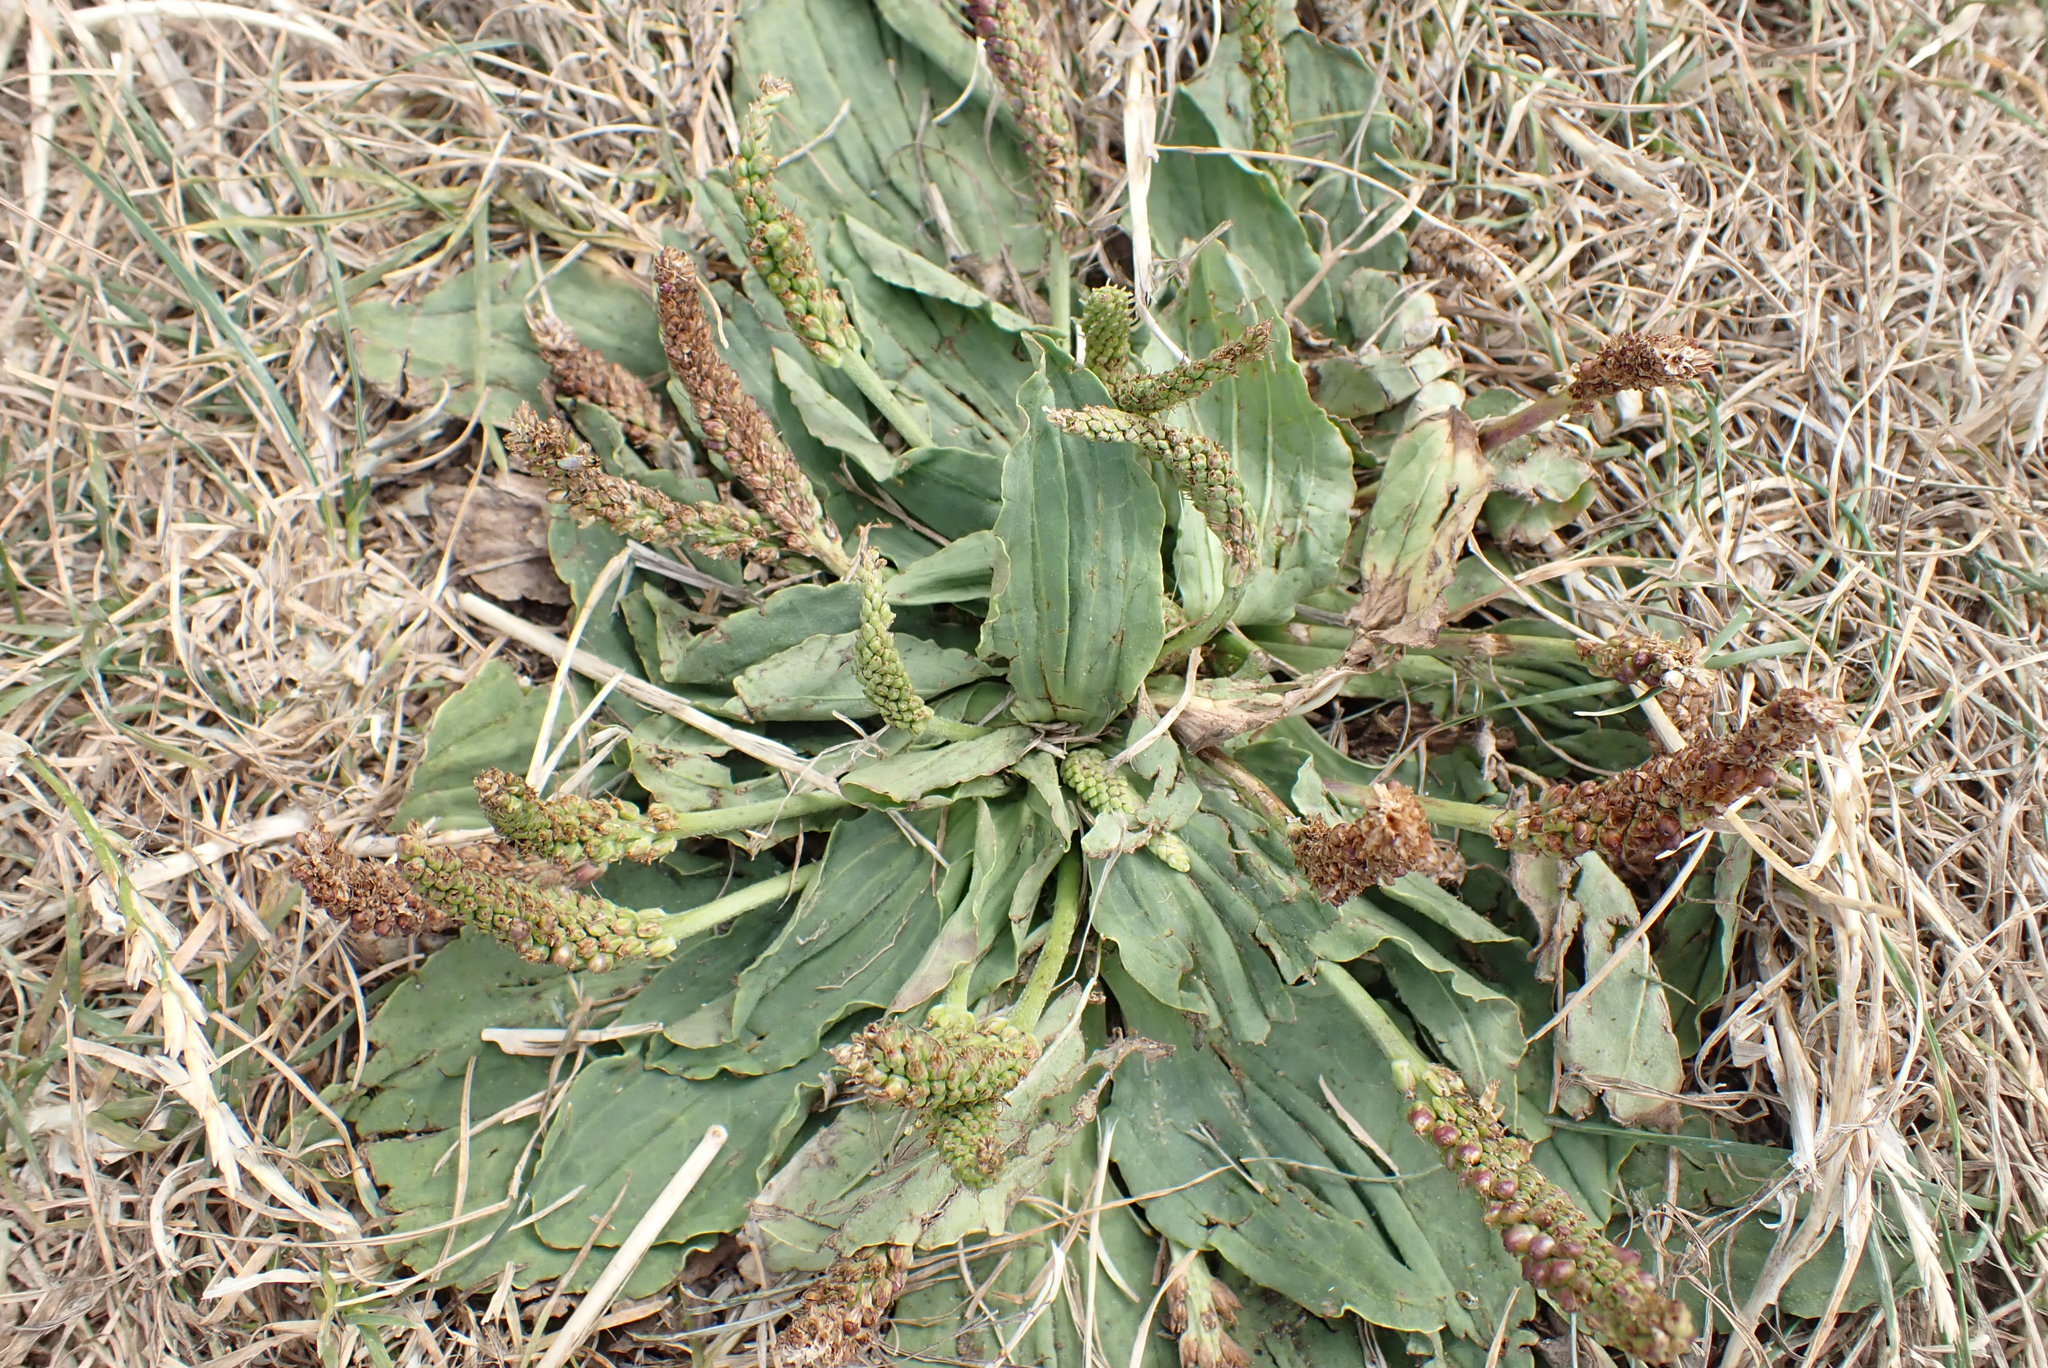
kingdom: Plantae
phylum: Tracheophyta
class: Magnoliopsida
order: Lamiales
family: Plantaginaceae
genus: Plantago
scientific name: Plantago major
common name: Common plantain
